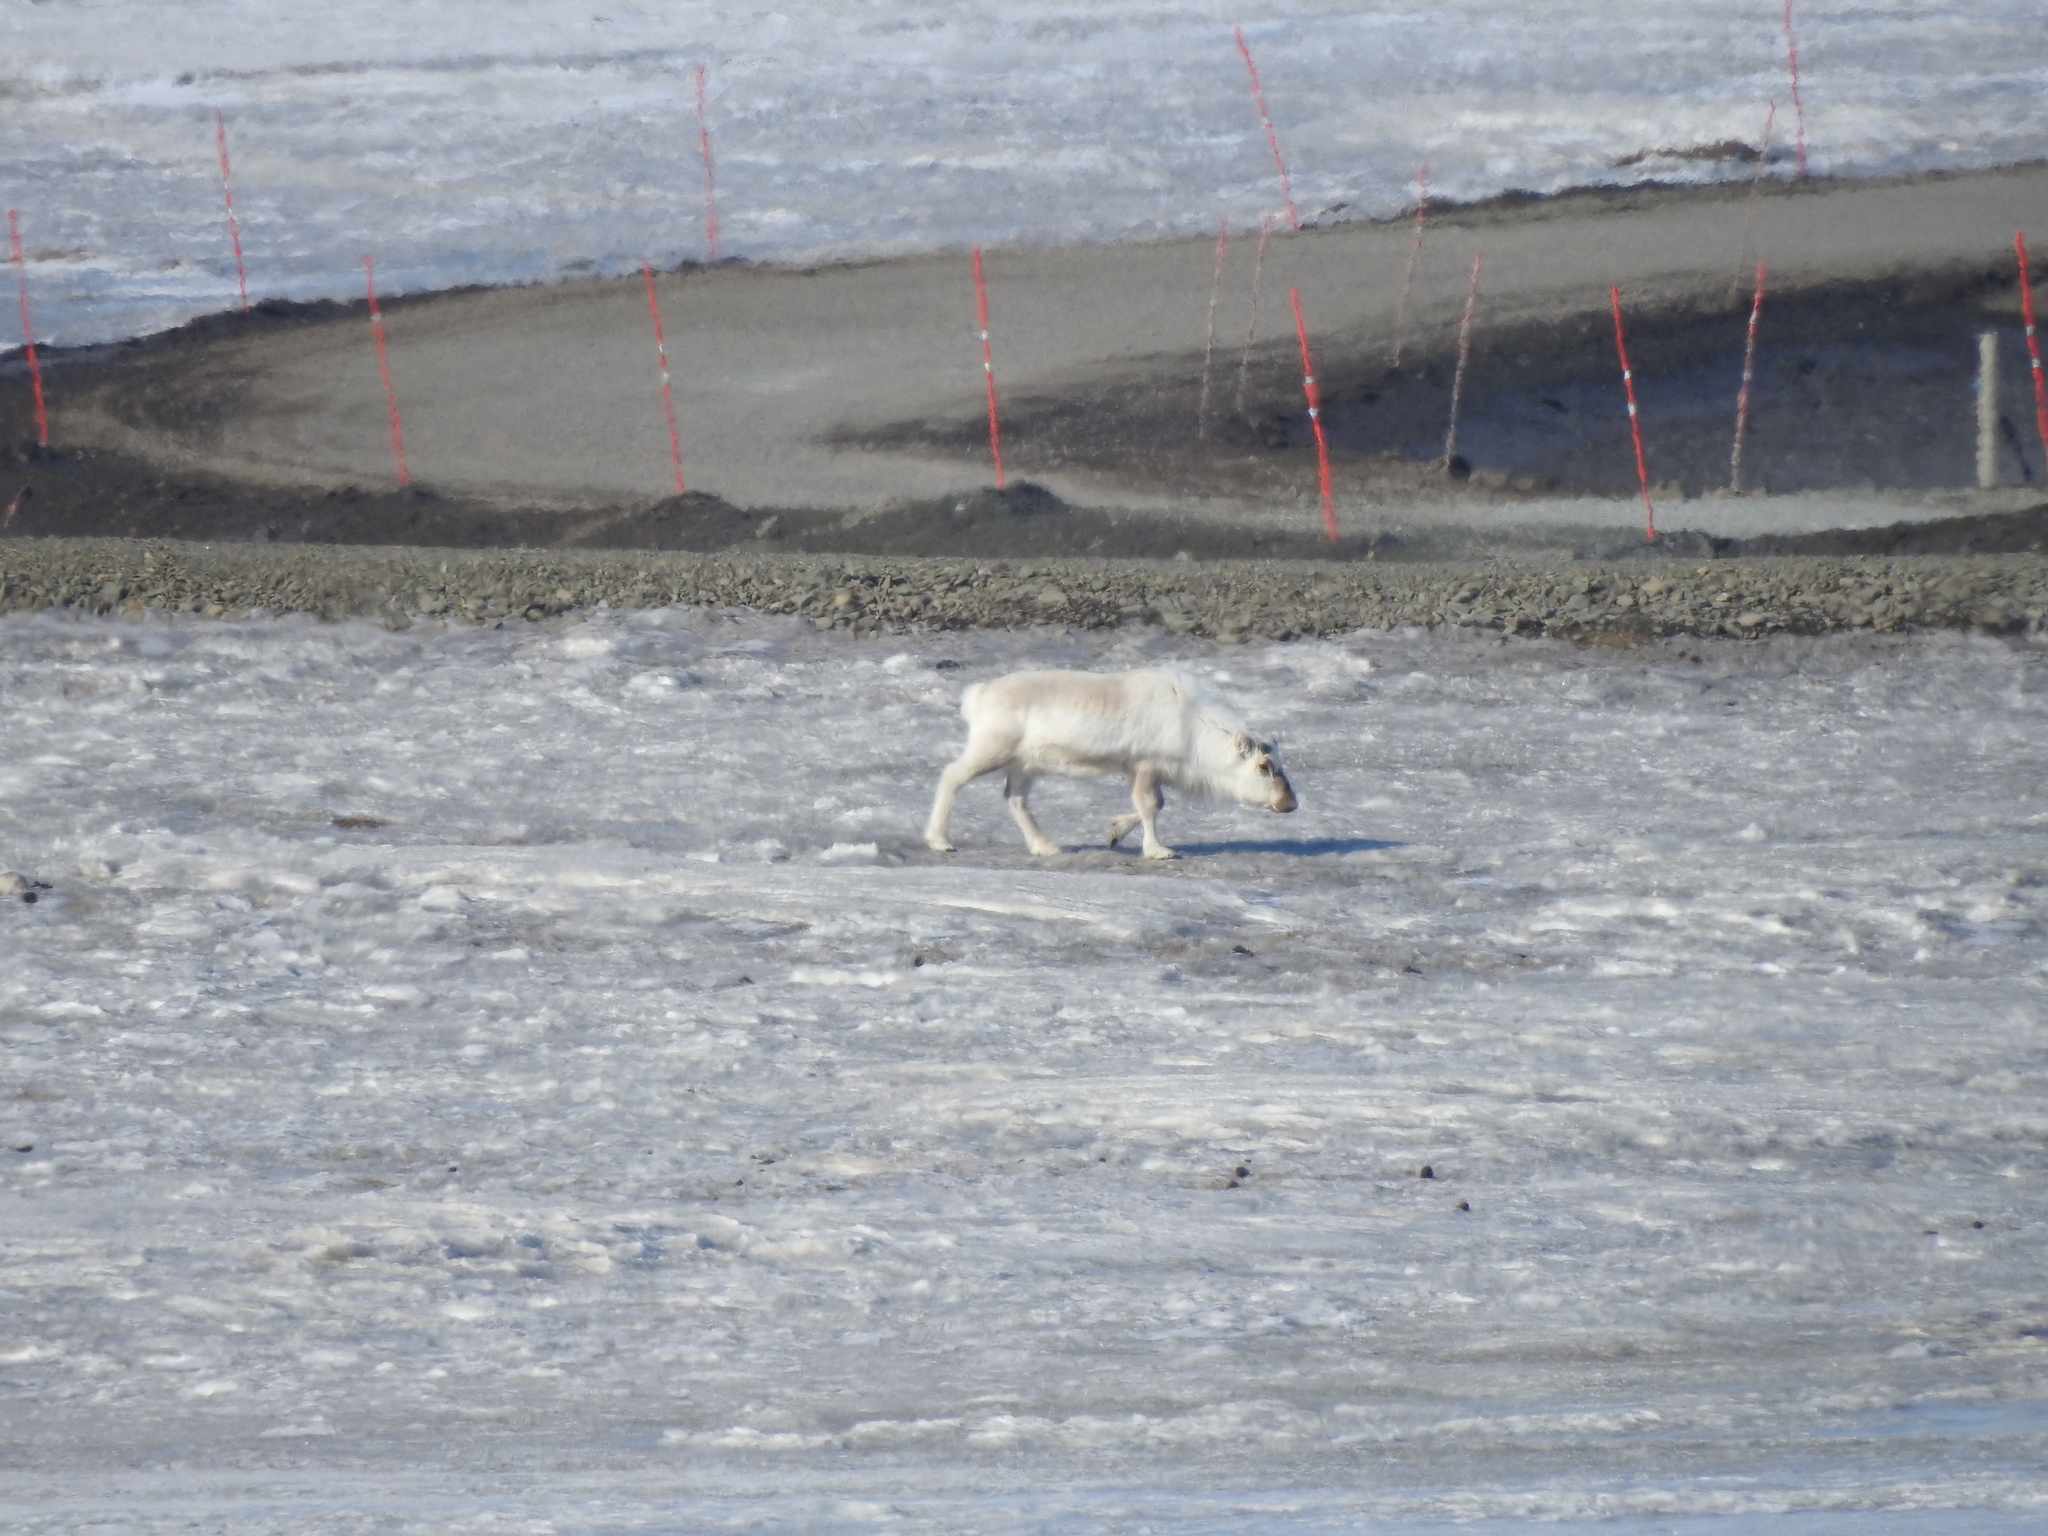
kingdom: Animalia
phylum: Chordata
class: Mammalia
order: Artiodactyla
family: Cervidae
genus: Rangifer
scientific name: Rangifer tarandus
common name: Reindeer
